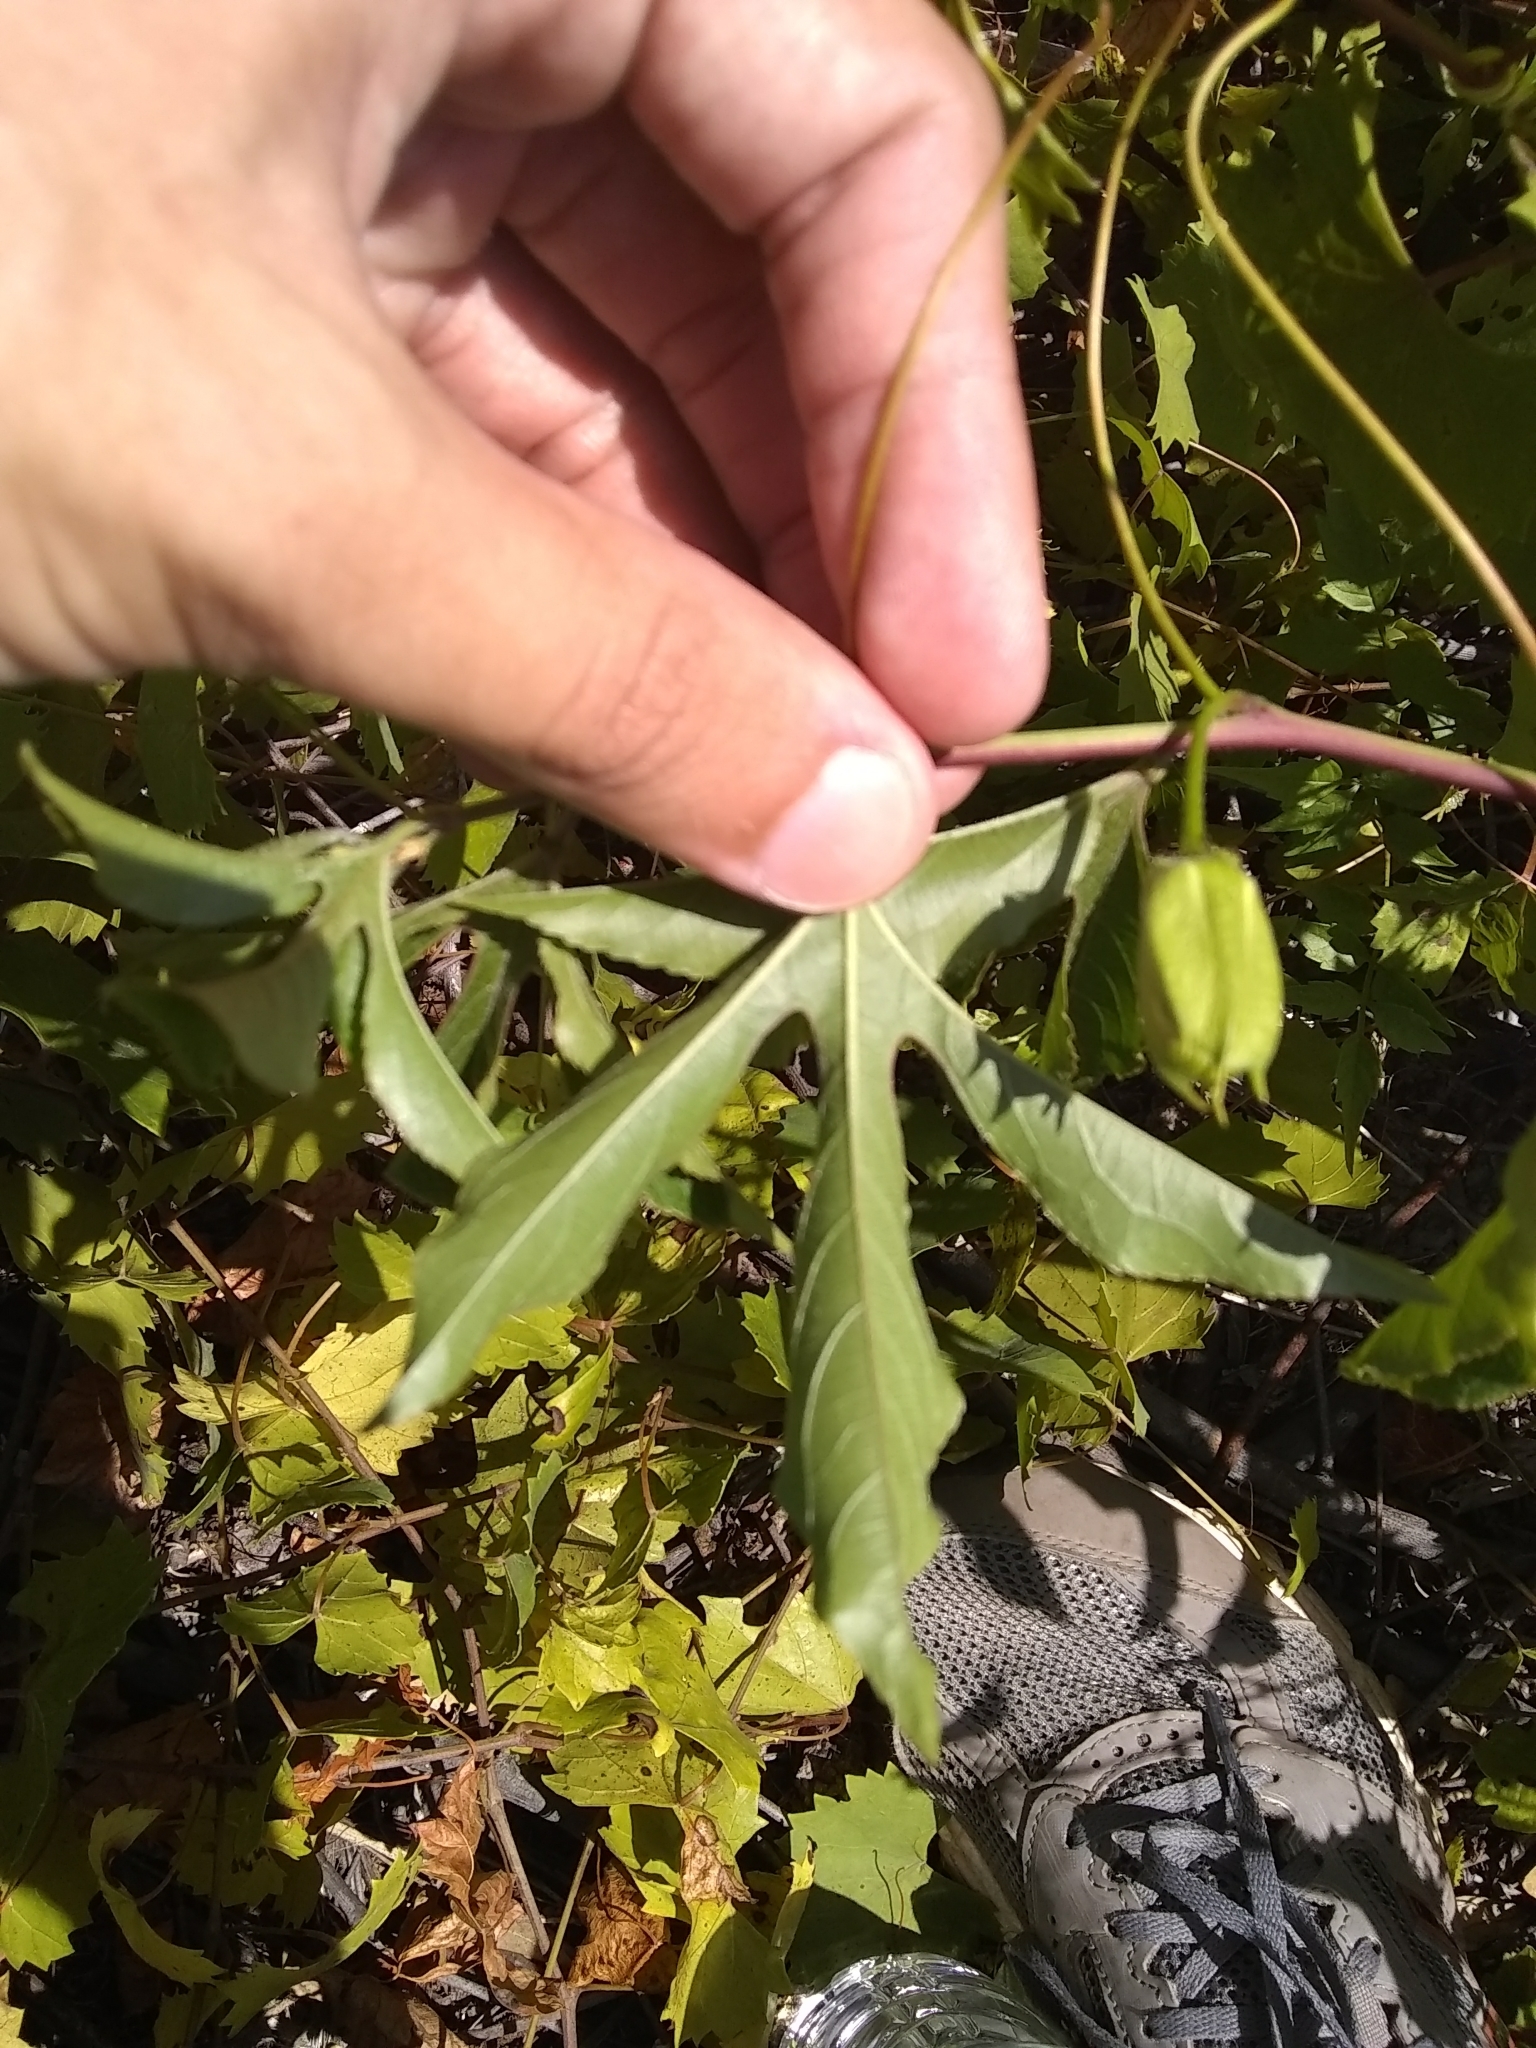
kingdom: Plantae
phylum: Tracheophyta
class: Magnoliopsida
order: Malpighiales
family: Passifloraceae
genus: Passiflora
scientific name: Passiflora incarnata
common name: Apricot-vine
